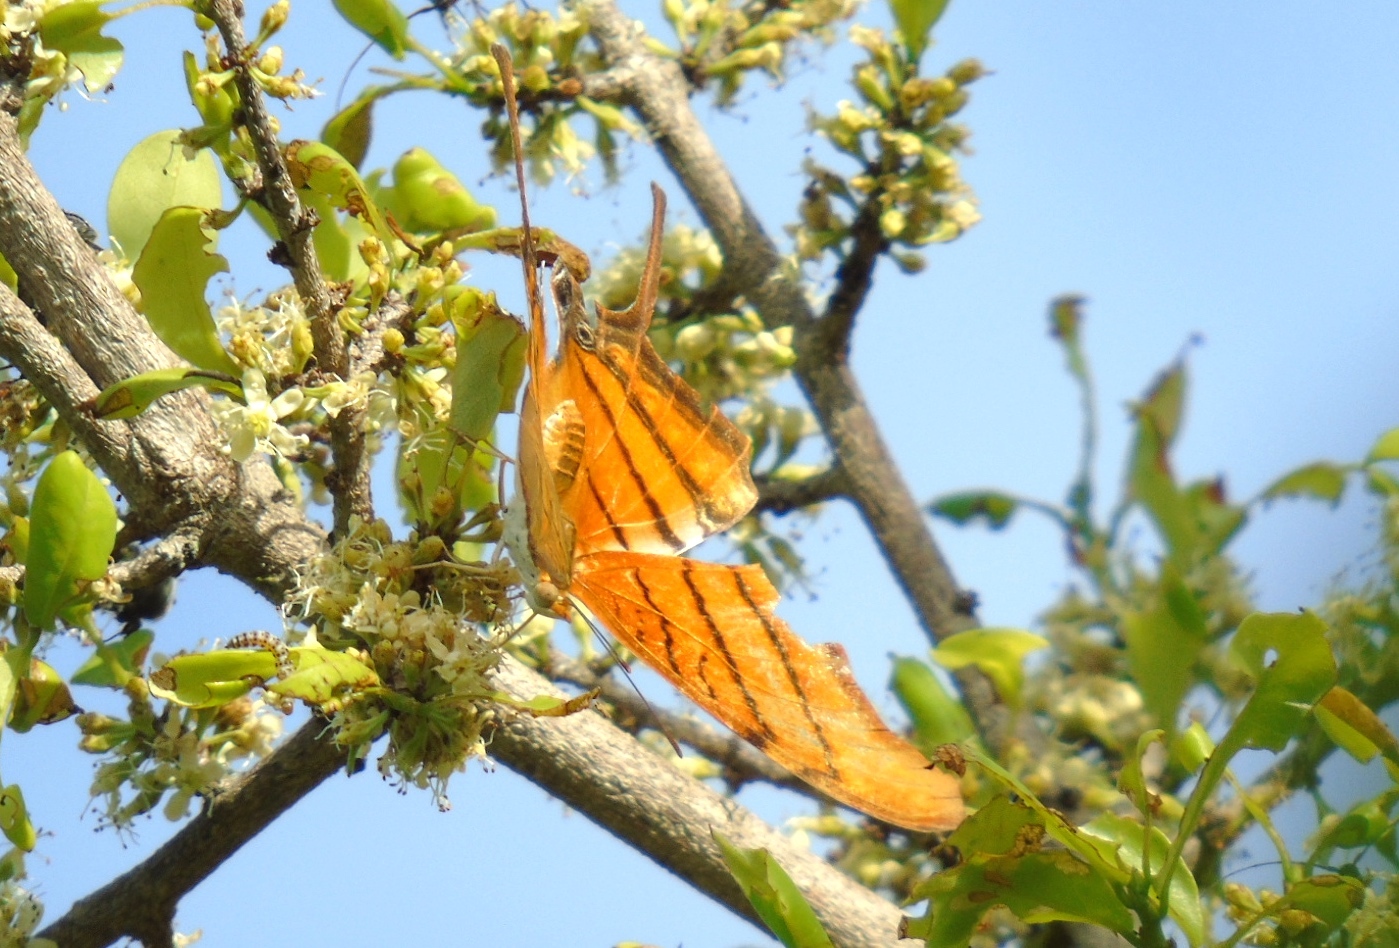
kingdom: Animalia
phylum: Arthropoda
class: Insecta
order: Lepidoptera
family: Nymphalidae
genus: Marpesia
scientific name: Marpesia petreus
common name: Red dagger wing
